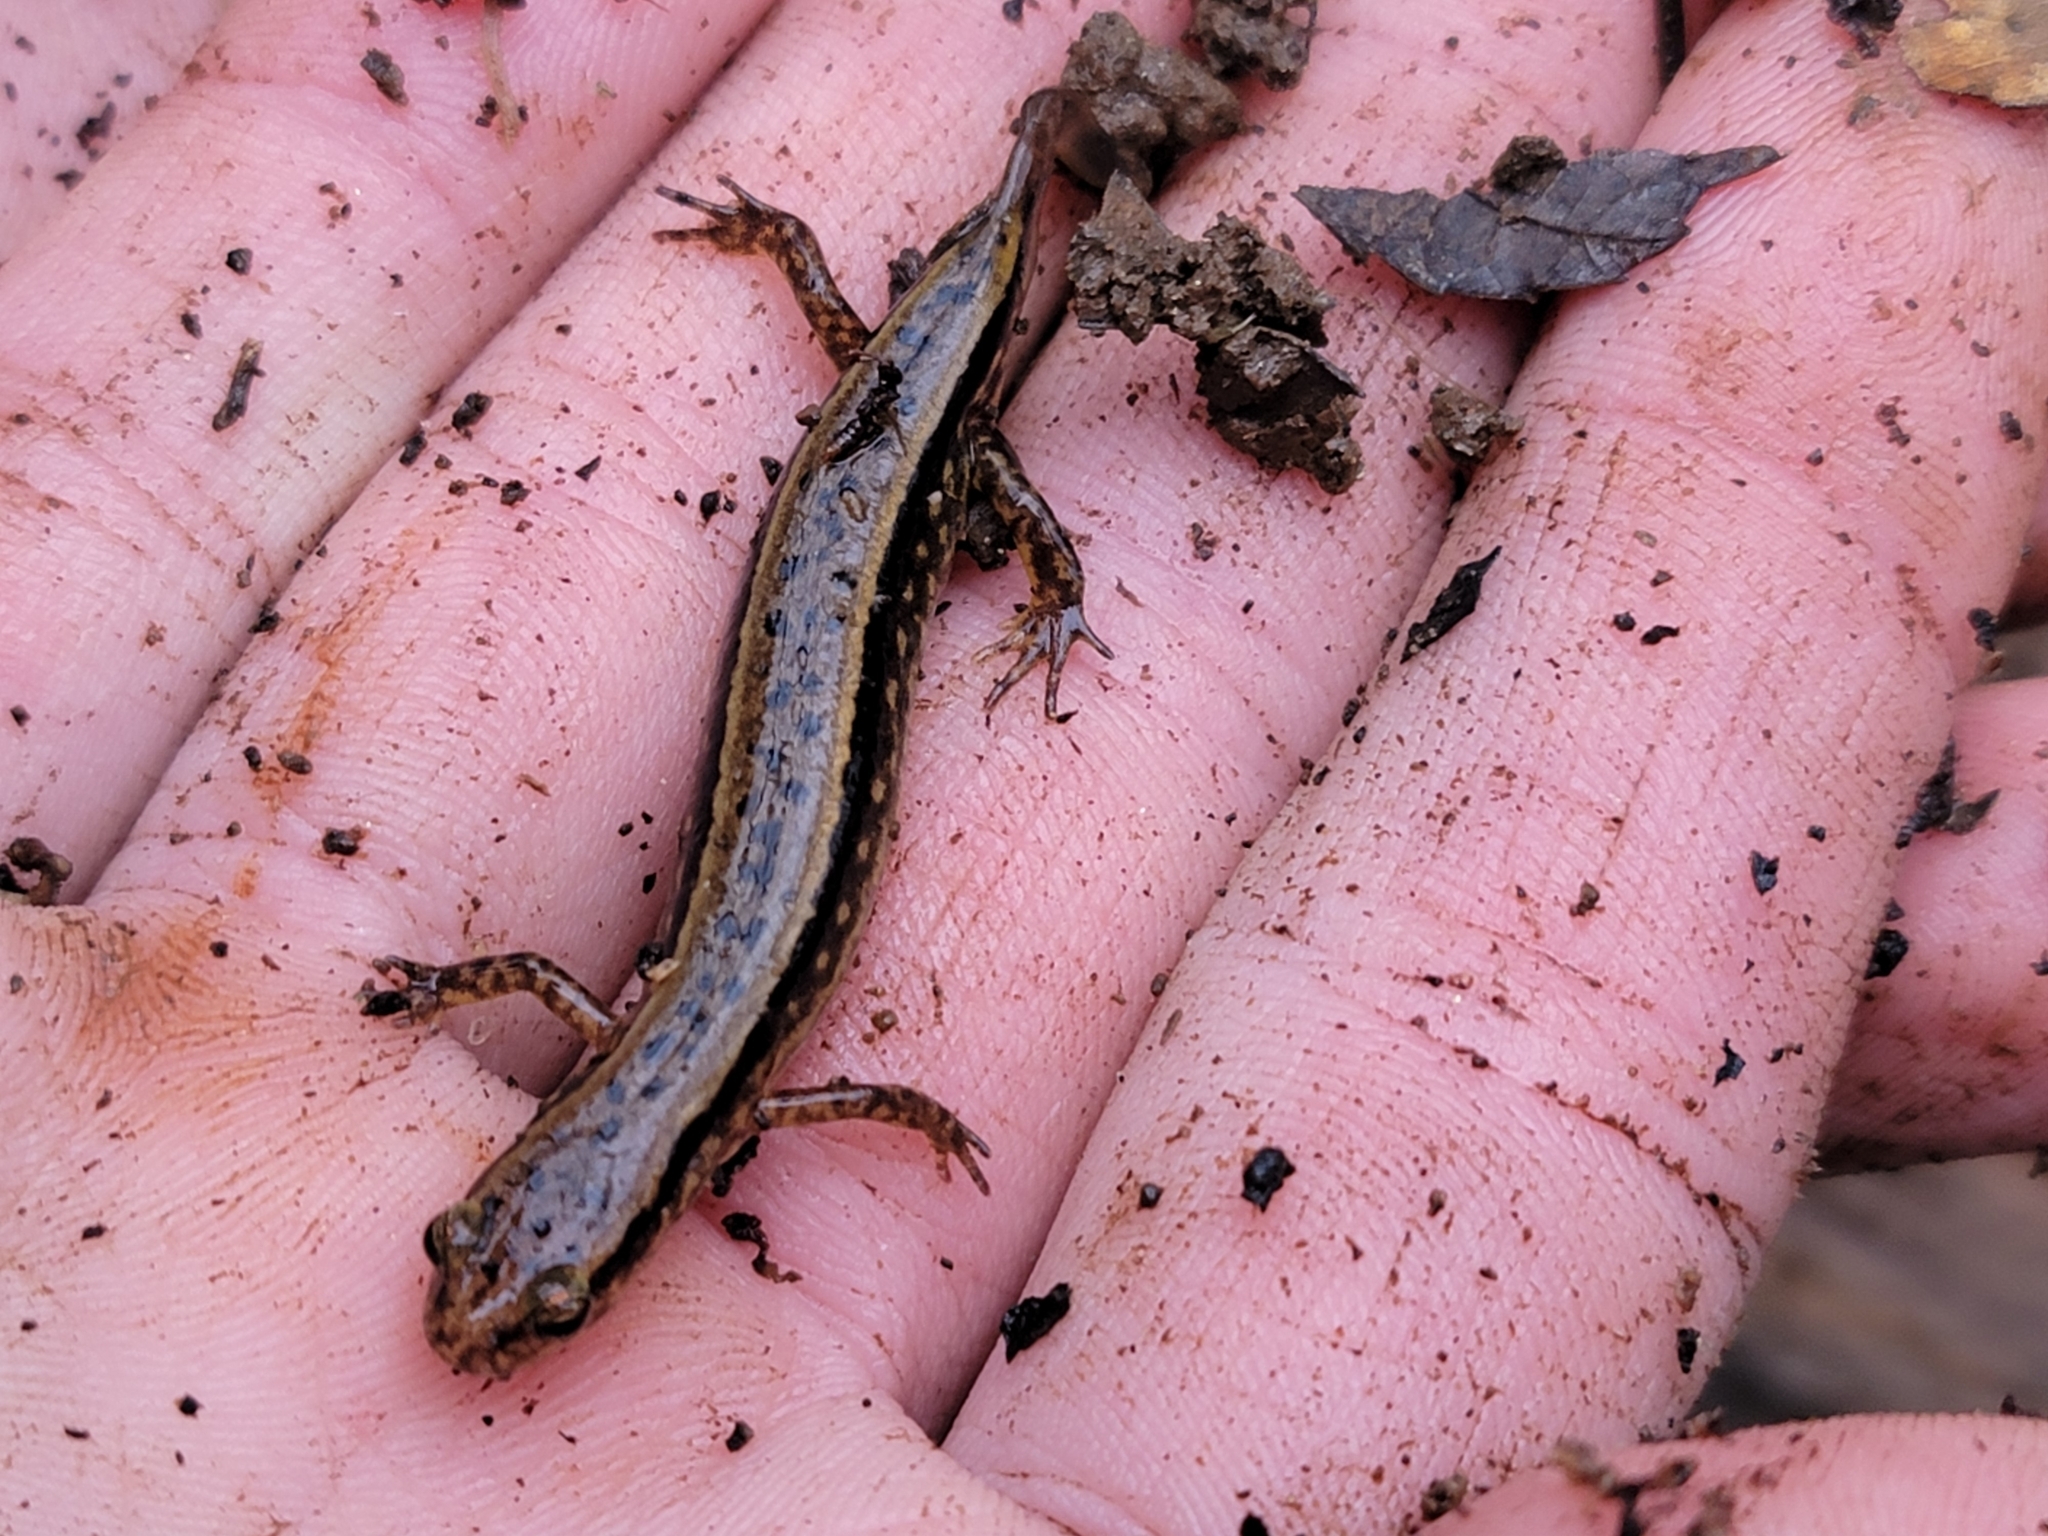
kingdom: Animalia
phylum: Chordata
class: Amphibia
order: Caudata
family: Plethodontidae
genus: Eurycea
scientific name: Eurycea cirrigera
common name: Southern two-lined salamander
